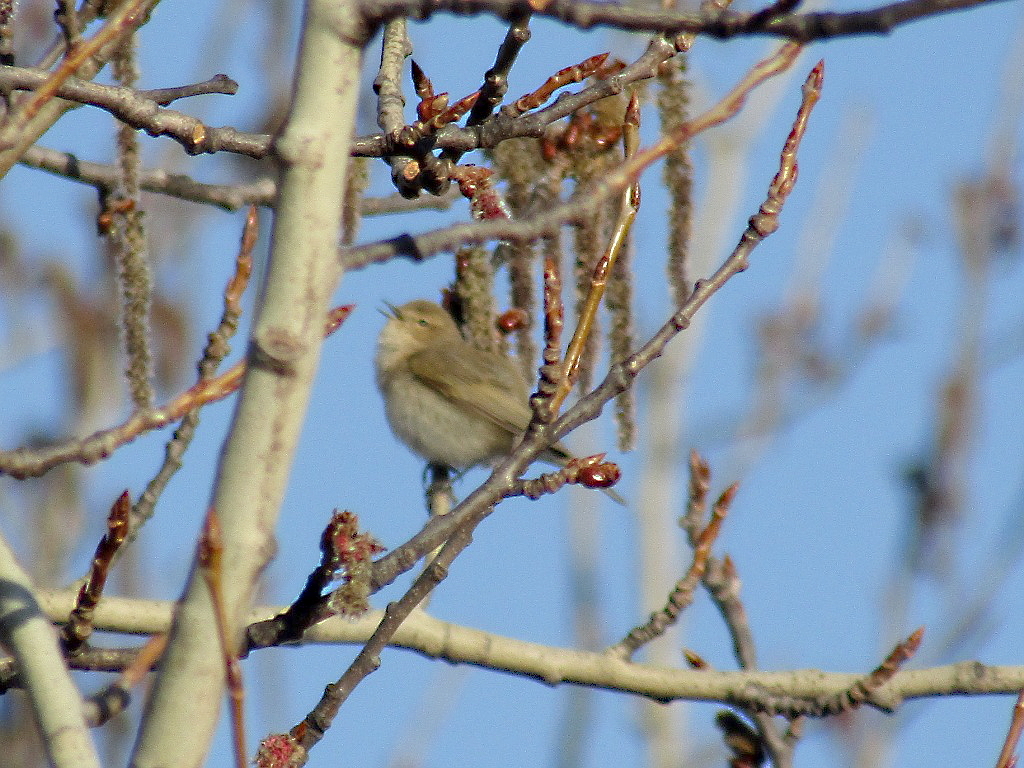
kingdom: Animalia
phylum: Chordata
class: Aves
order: Passeriformes
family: Phylloscopidae
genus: Phylloscopus
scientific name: Phylloscopus collybita
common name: Common chiffchaff
